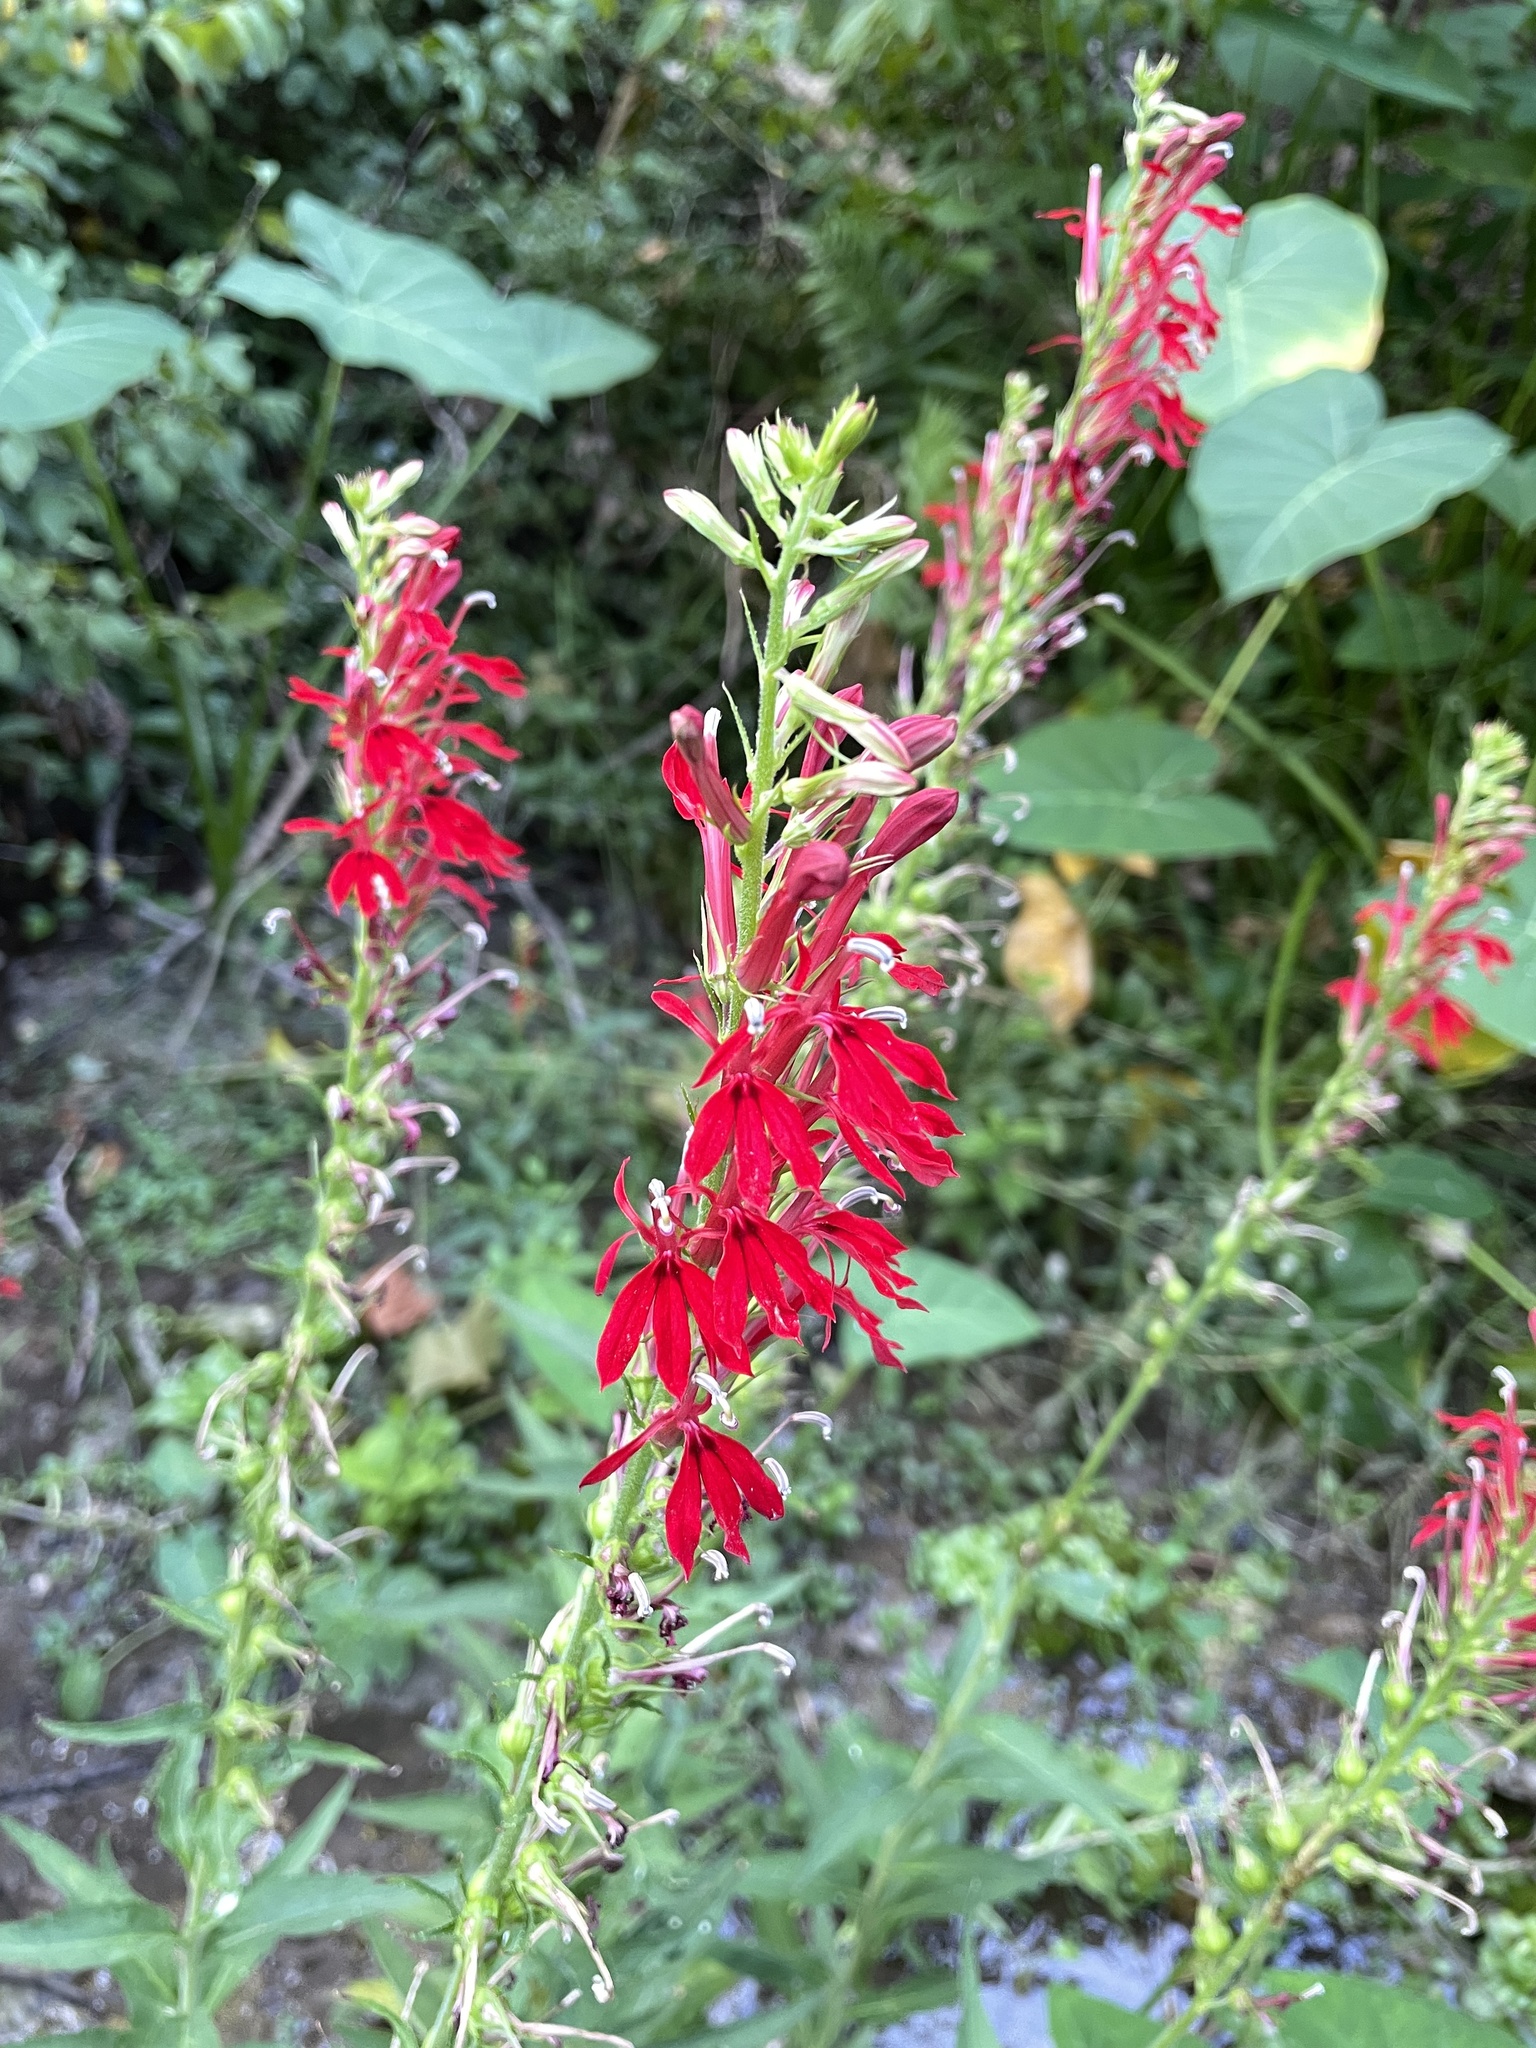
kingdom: Plantae
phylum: Tracheophyta
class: Magnoliopsida
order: Asterales
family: Campanulaceae
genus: Lobelia
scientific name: Lobelia cardinalis
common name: Cardinal flower
